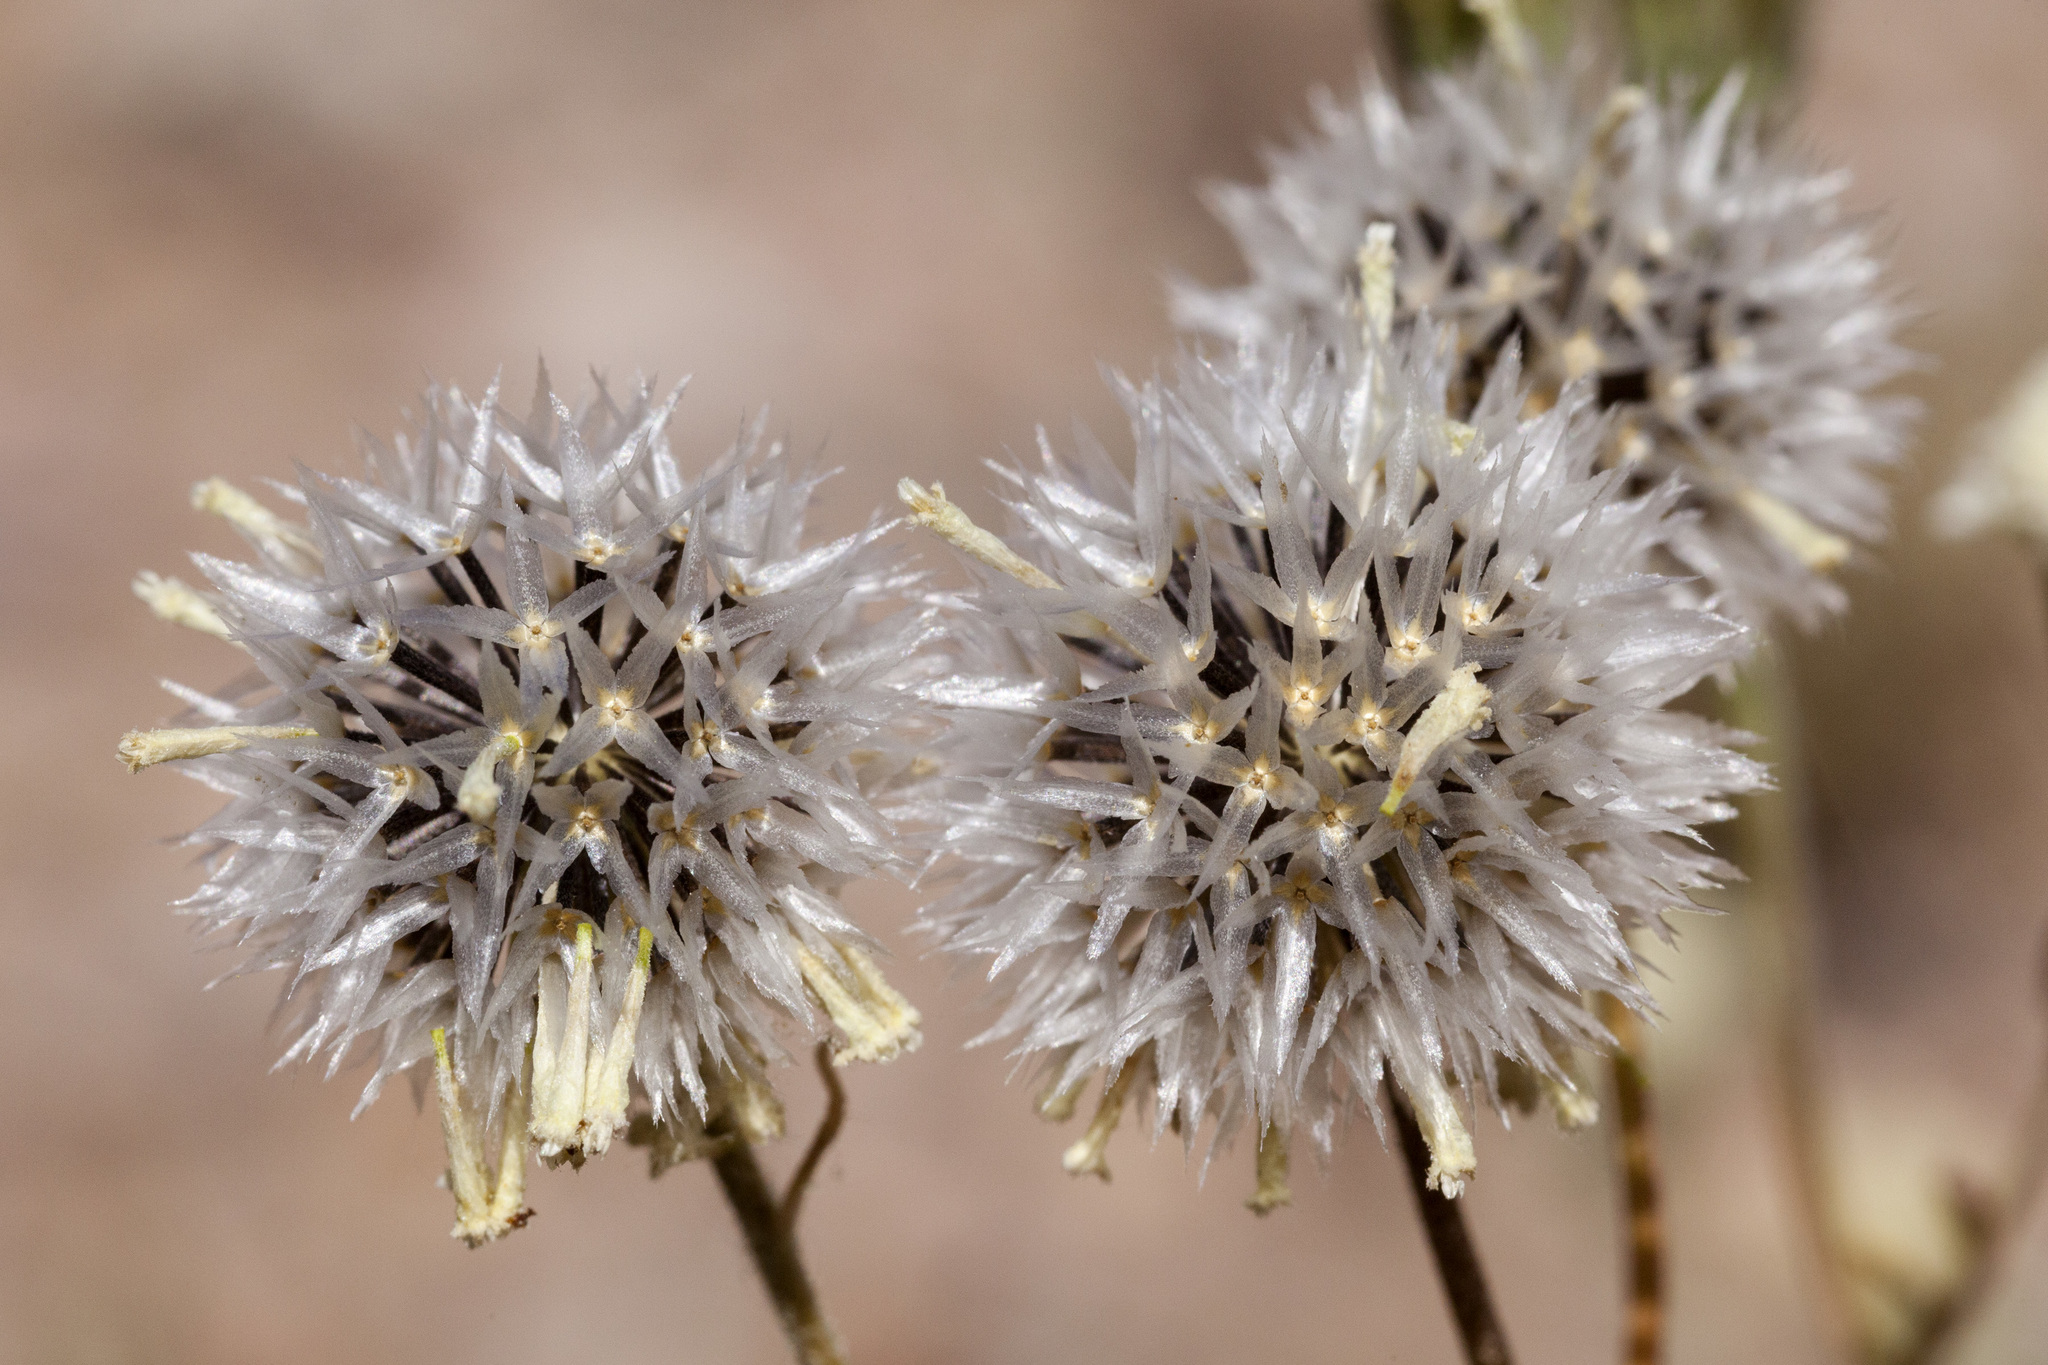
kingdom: Plantae
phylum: Tracheophyta
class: Magnoliopsida
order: Asterales
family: Asteraceae
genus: Chaenactis
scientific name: Chaenactis stevioides
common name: Desert pincushion
